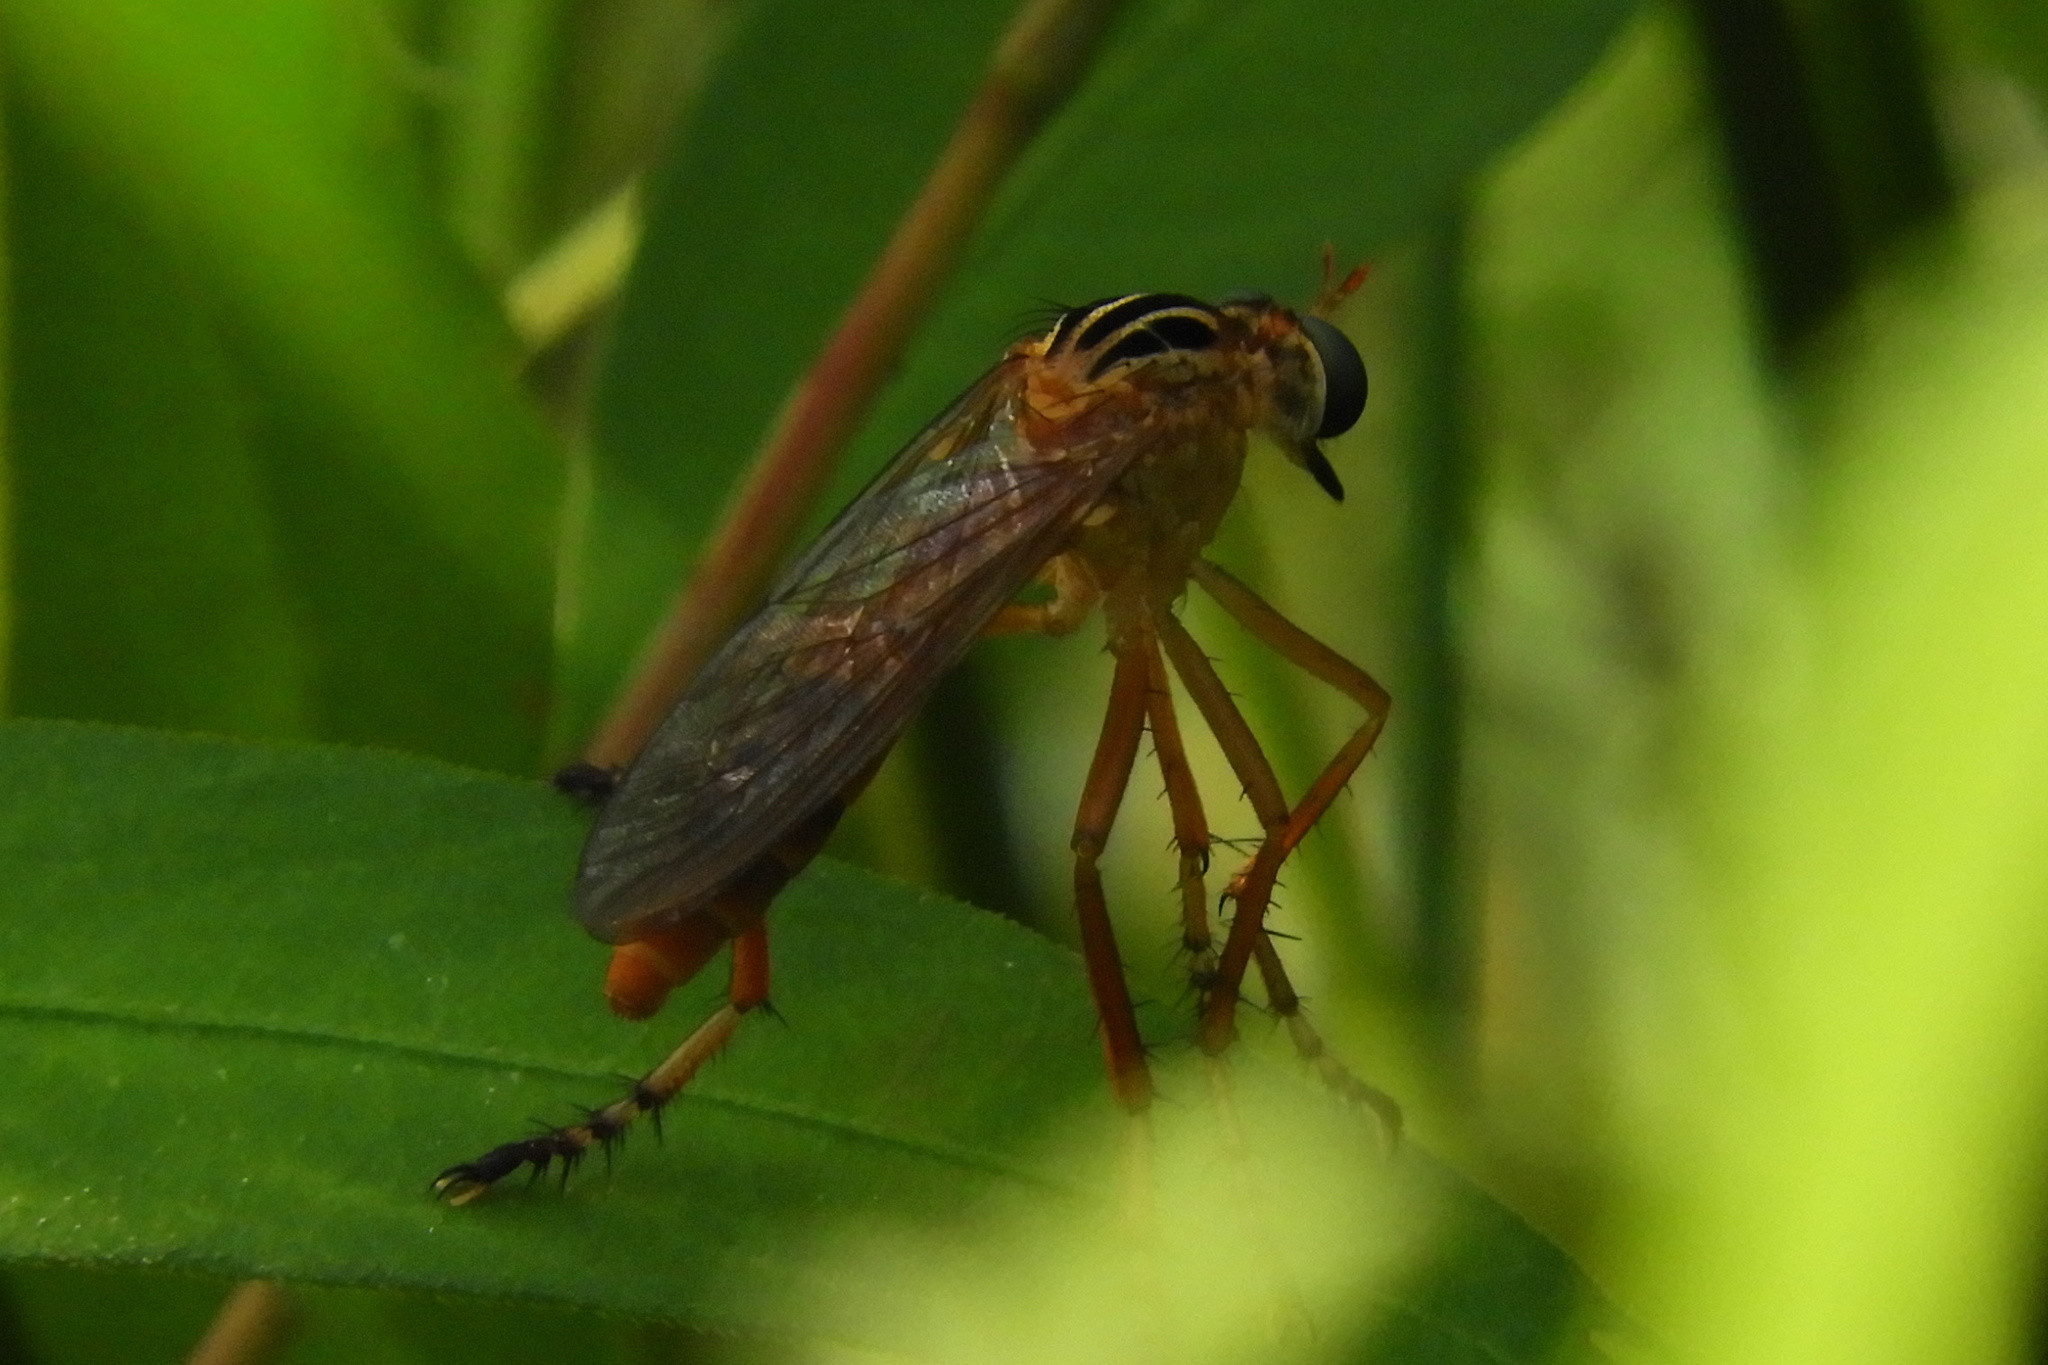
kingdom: Animalia
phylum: Arthropoda
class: Insecta
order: Diptera
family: Asilidae
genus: Diogmites
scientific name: Diogmites neoternatus
